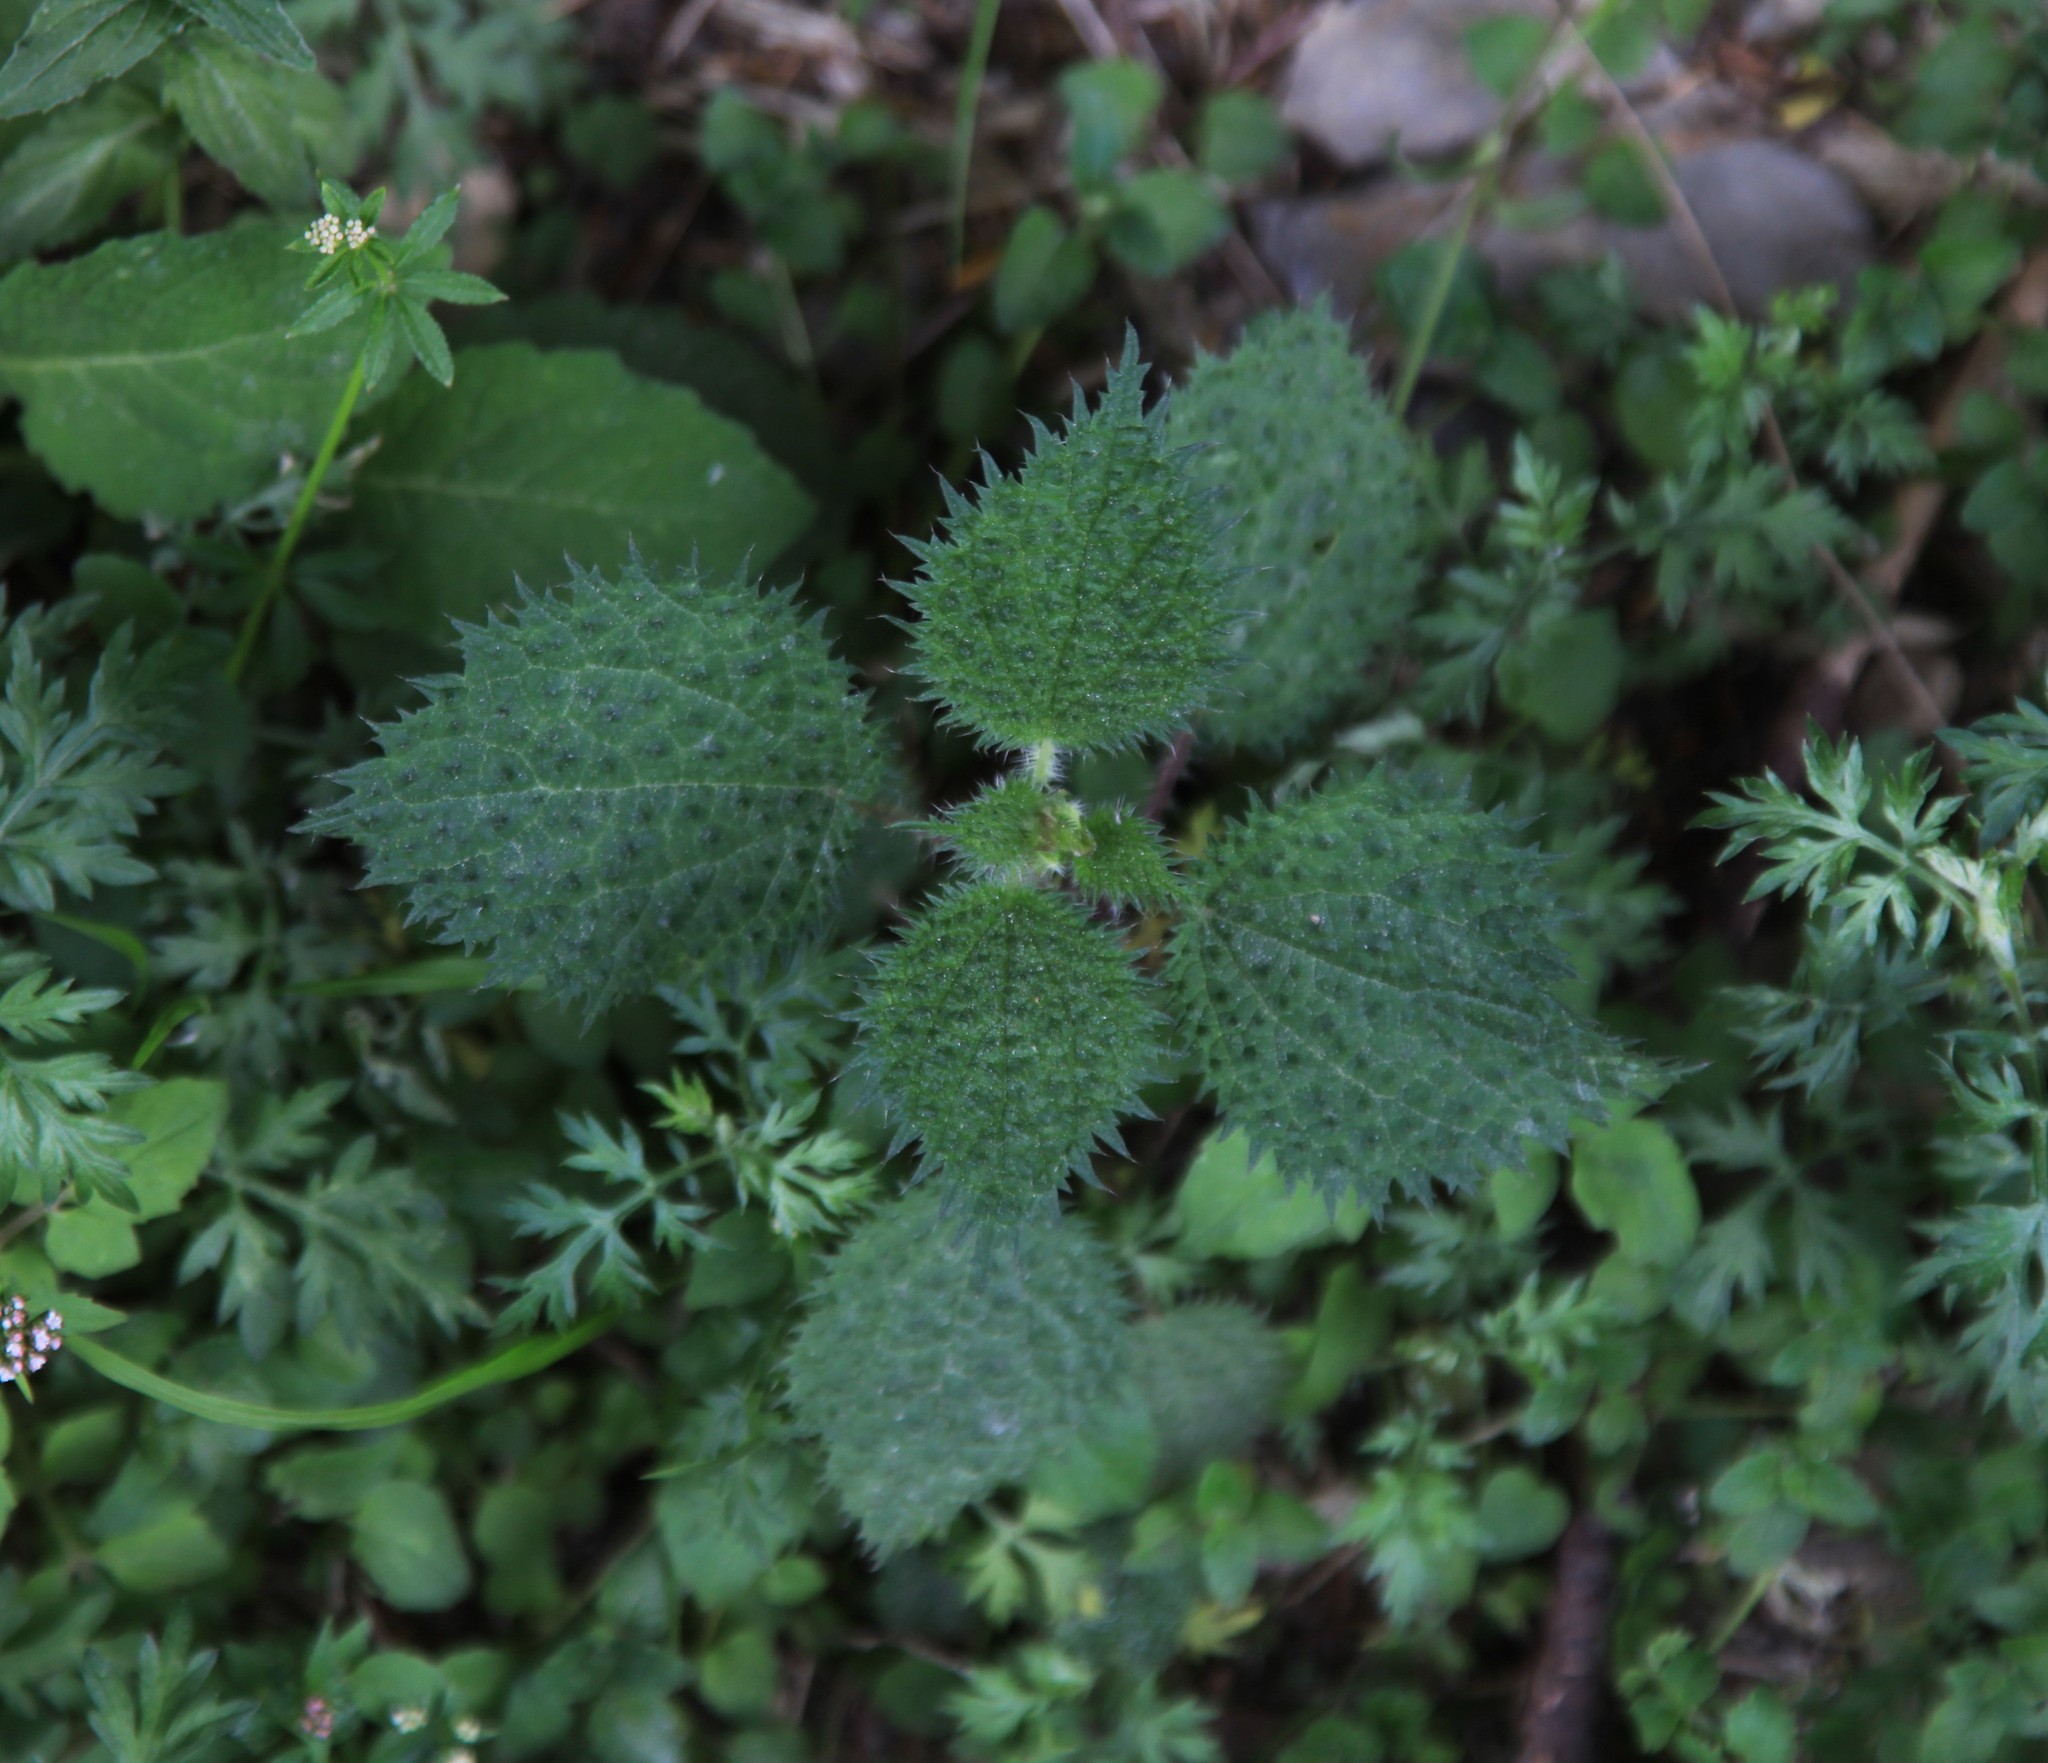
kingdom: Plantae
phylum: Tracheophyta
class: Magnoliopsida
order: Rosales
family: Urticaceae
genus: Urtica
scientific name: Urtica thunbergiana
